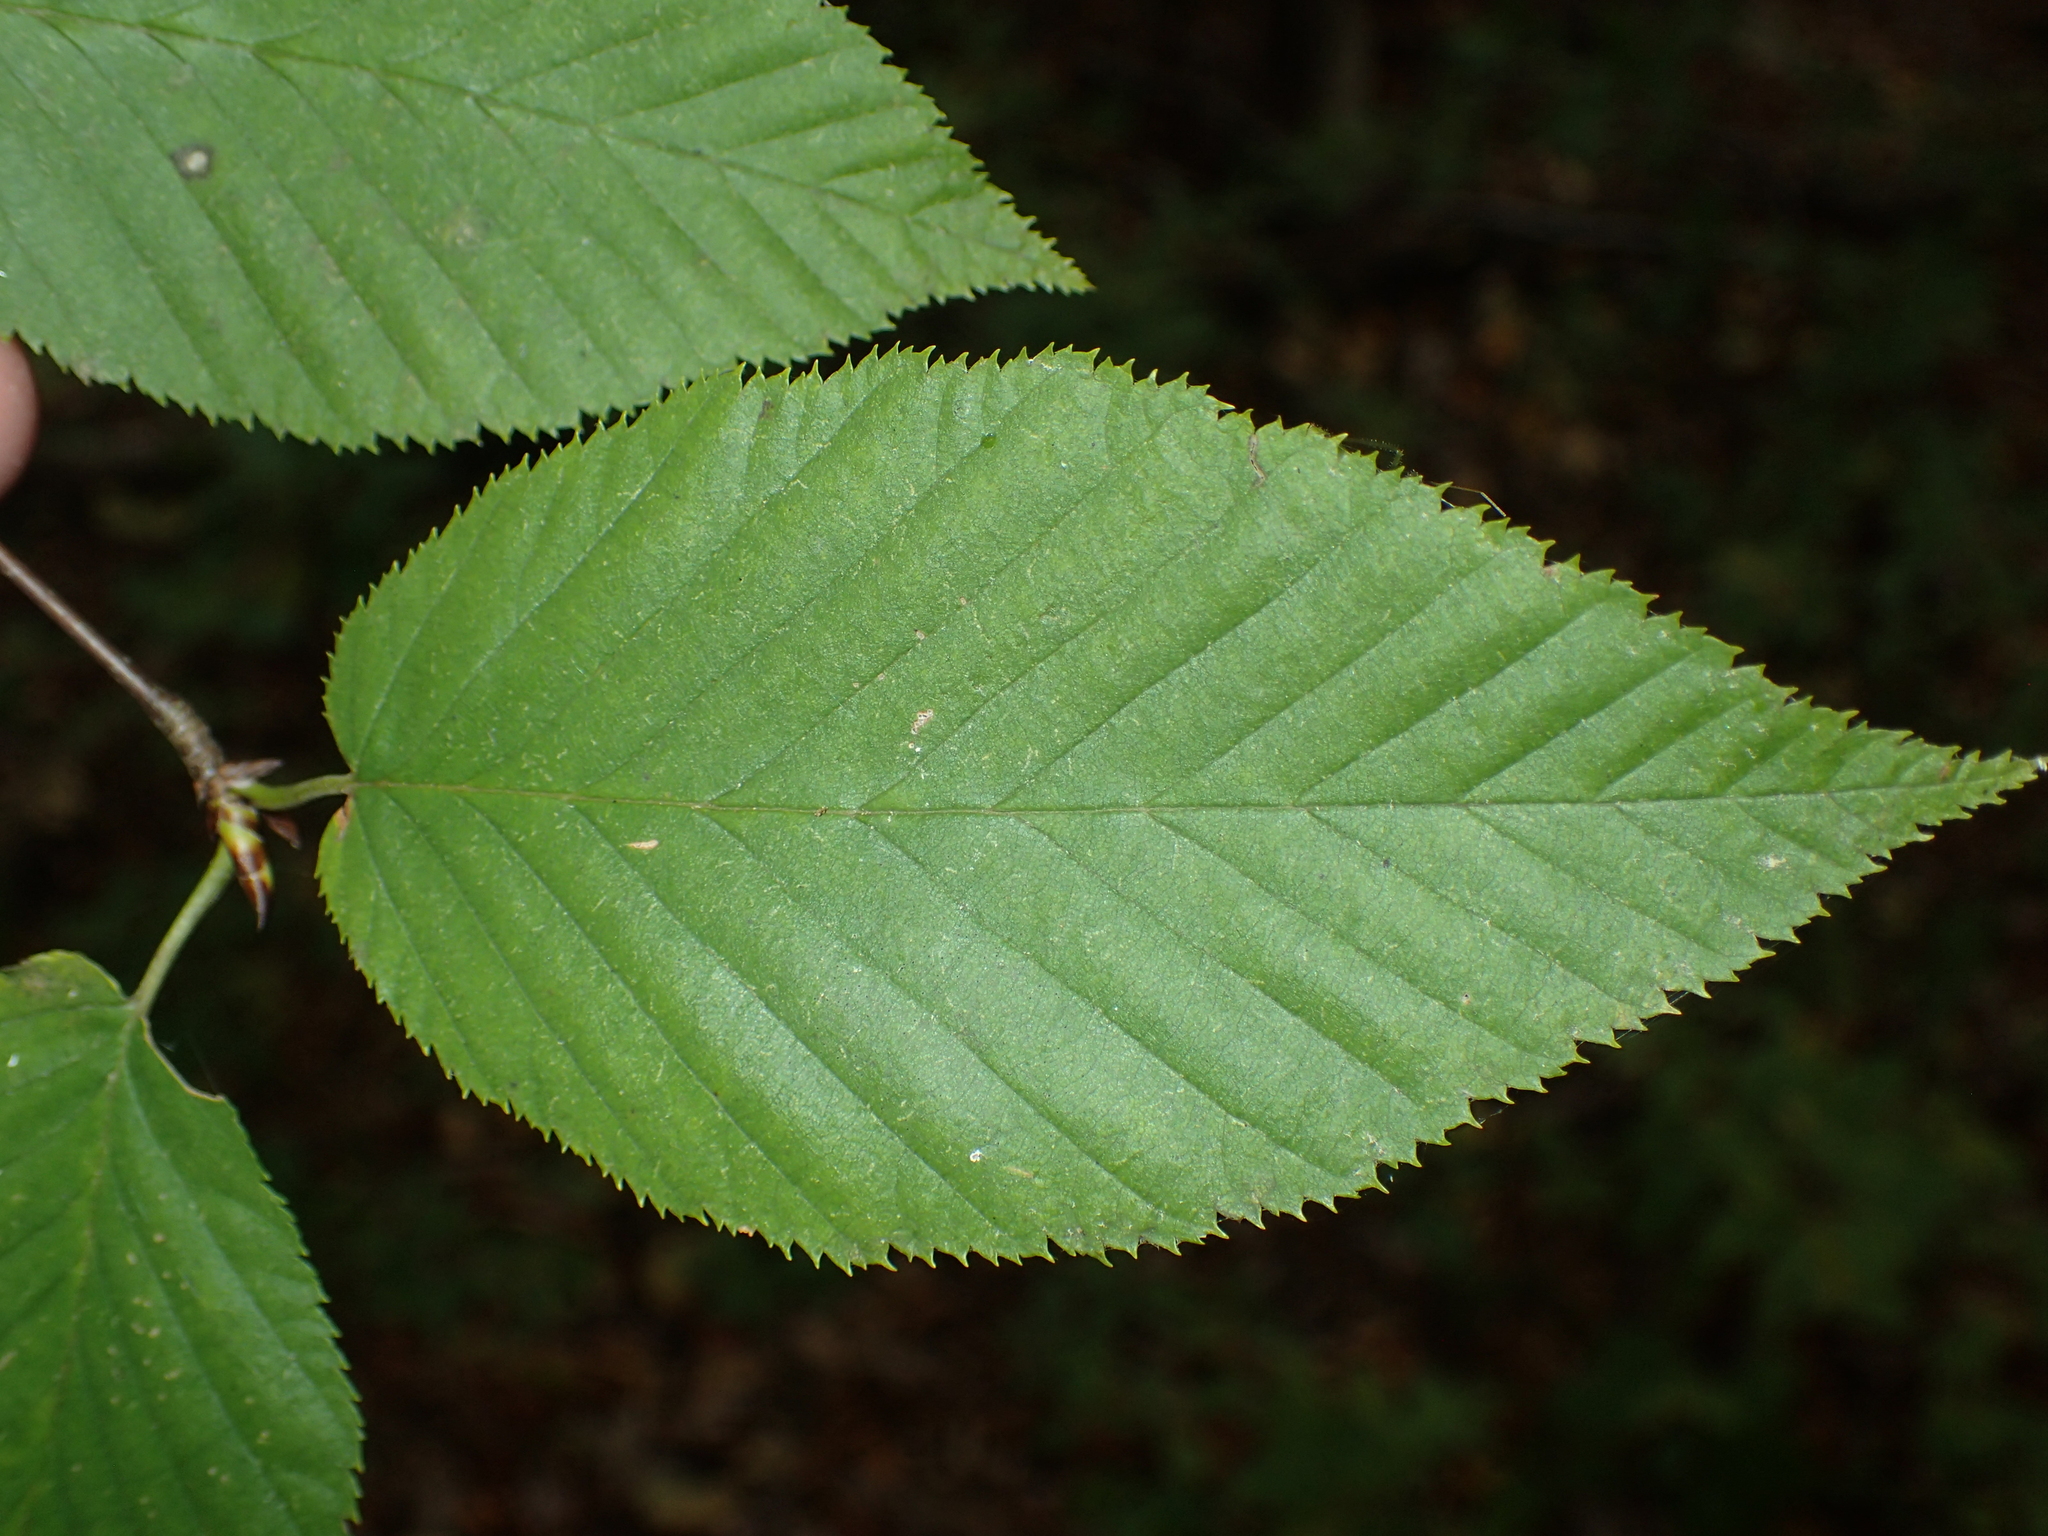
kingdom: Plantae
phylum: Tracheophyta
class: Magnoliopsida
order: Fagales
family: Betulaceae
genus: Betula
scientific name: Betula lenta
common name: Black birch
